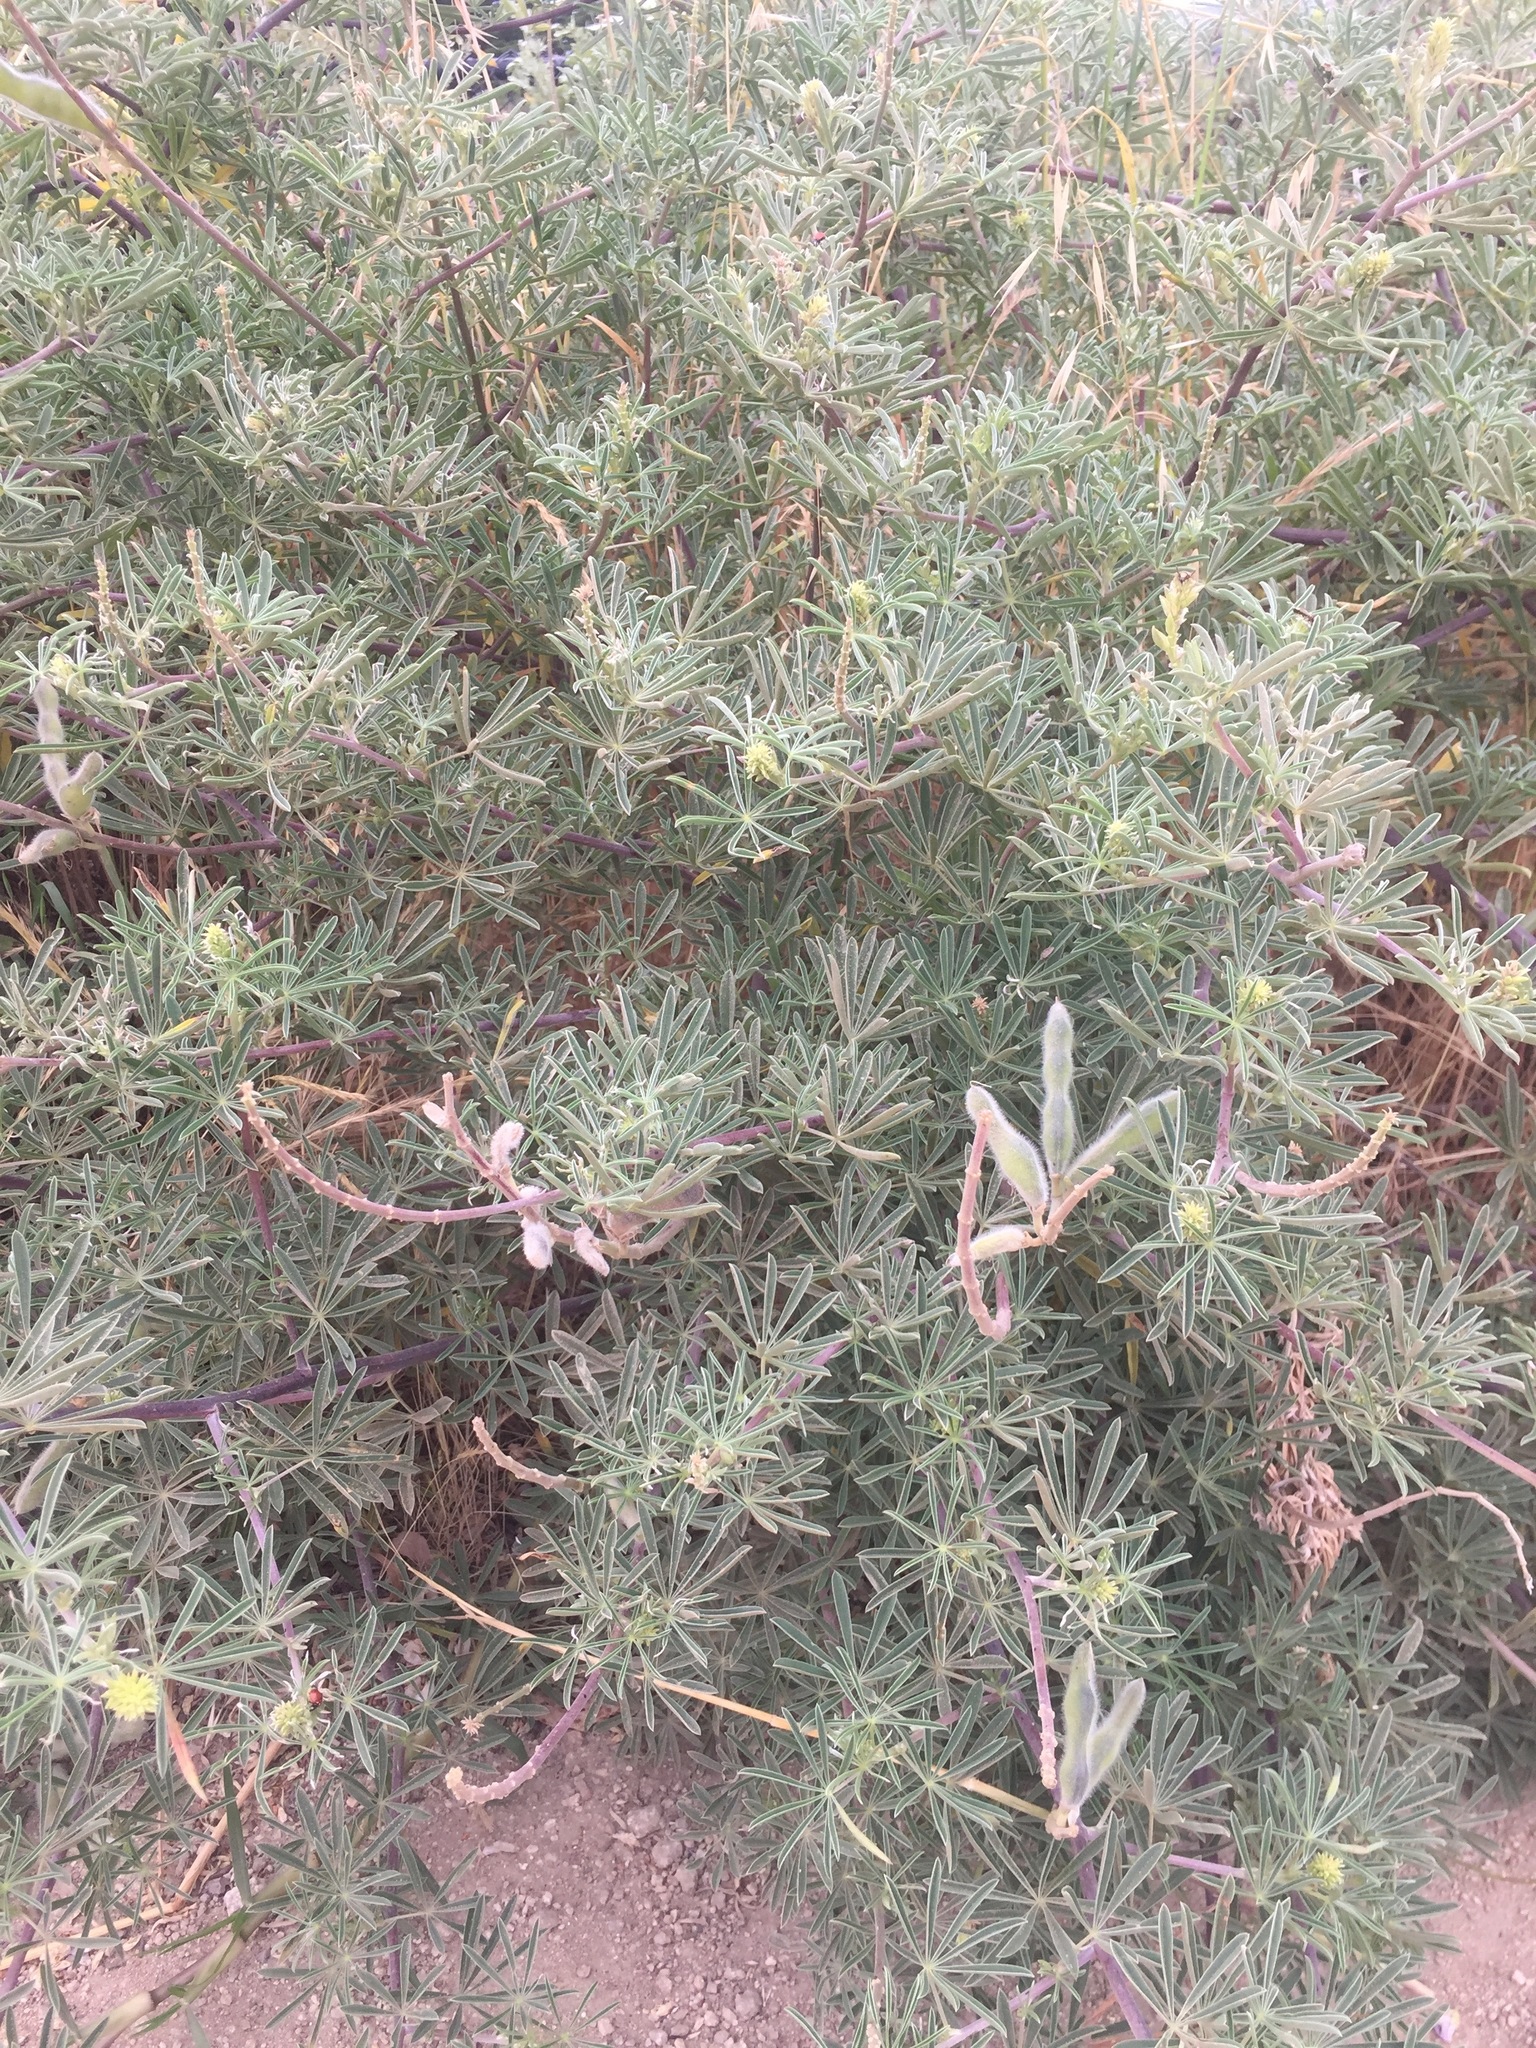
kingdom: Plantae
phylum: Tracheophyta
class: Magnoliopsida
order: Fabales
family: Fabaceae
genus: Lupinus
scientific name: Lupinus arboreus
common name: Yellow bush lupine
